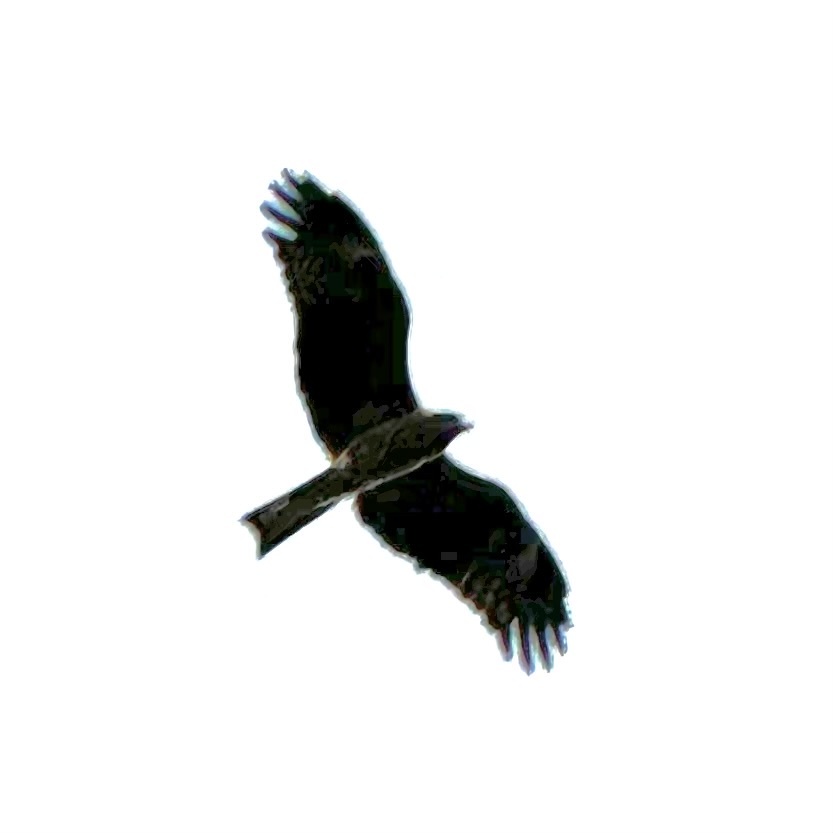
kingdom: Animalia
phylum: Chordata
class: Aves
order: Accipitriformes
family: Accipitridae
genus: Milvus
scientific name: Milvus migrans
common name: Black kite
